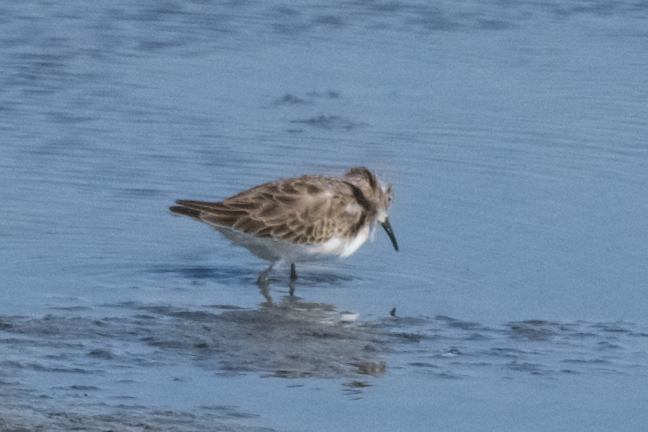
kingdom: Animalia
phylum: Chordata
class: Aves
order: Charadriiformes
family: Scolopacidae
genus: Calidris
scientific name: Calidris minutilla
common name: Least sandpiper
